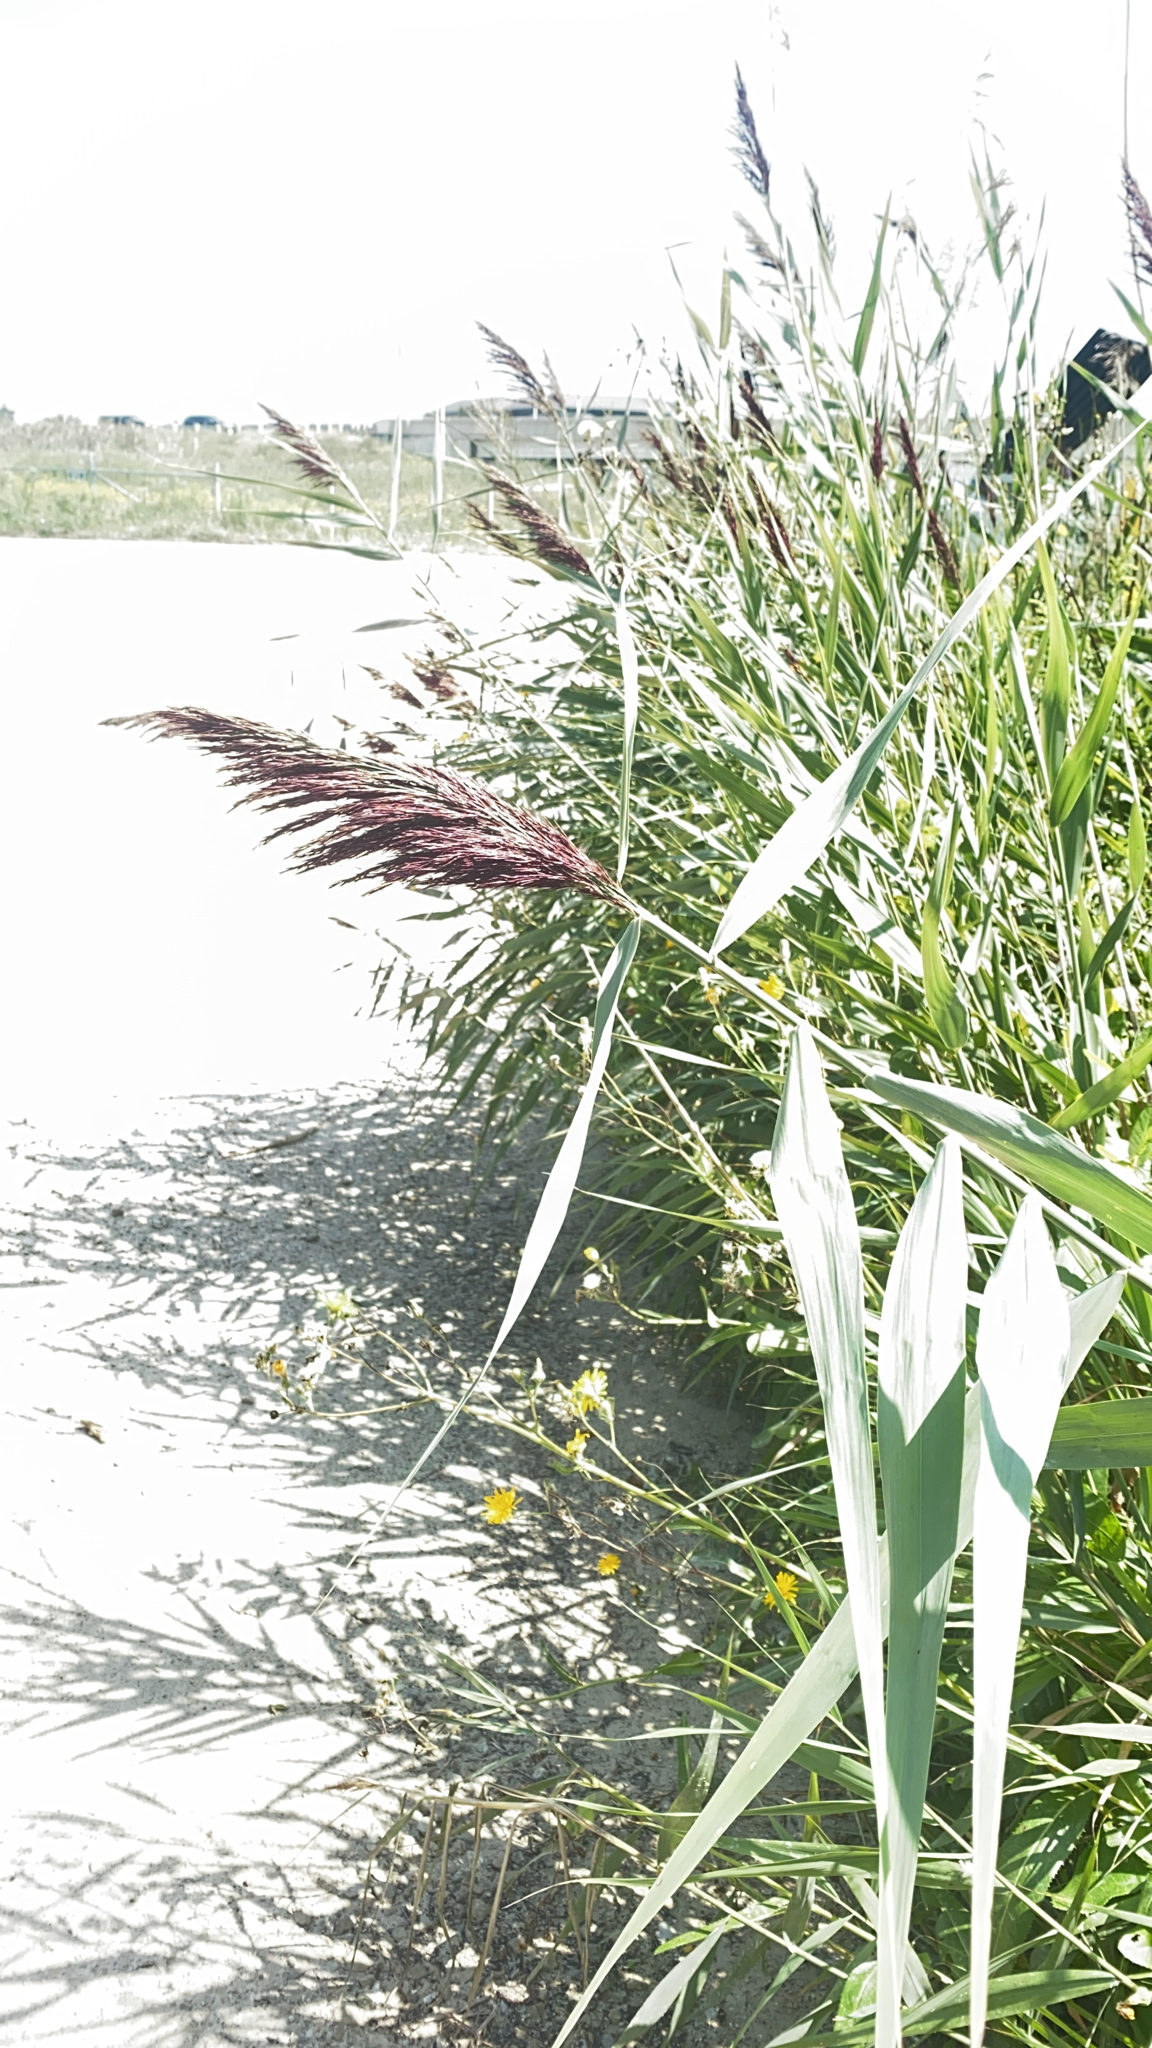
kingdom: Plantae
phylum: Tracheophyta
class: Liliopsida
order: Poales
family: Poaceae
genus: Phragmites
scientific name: Phragmites australis
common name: Common reed
